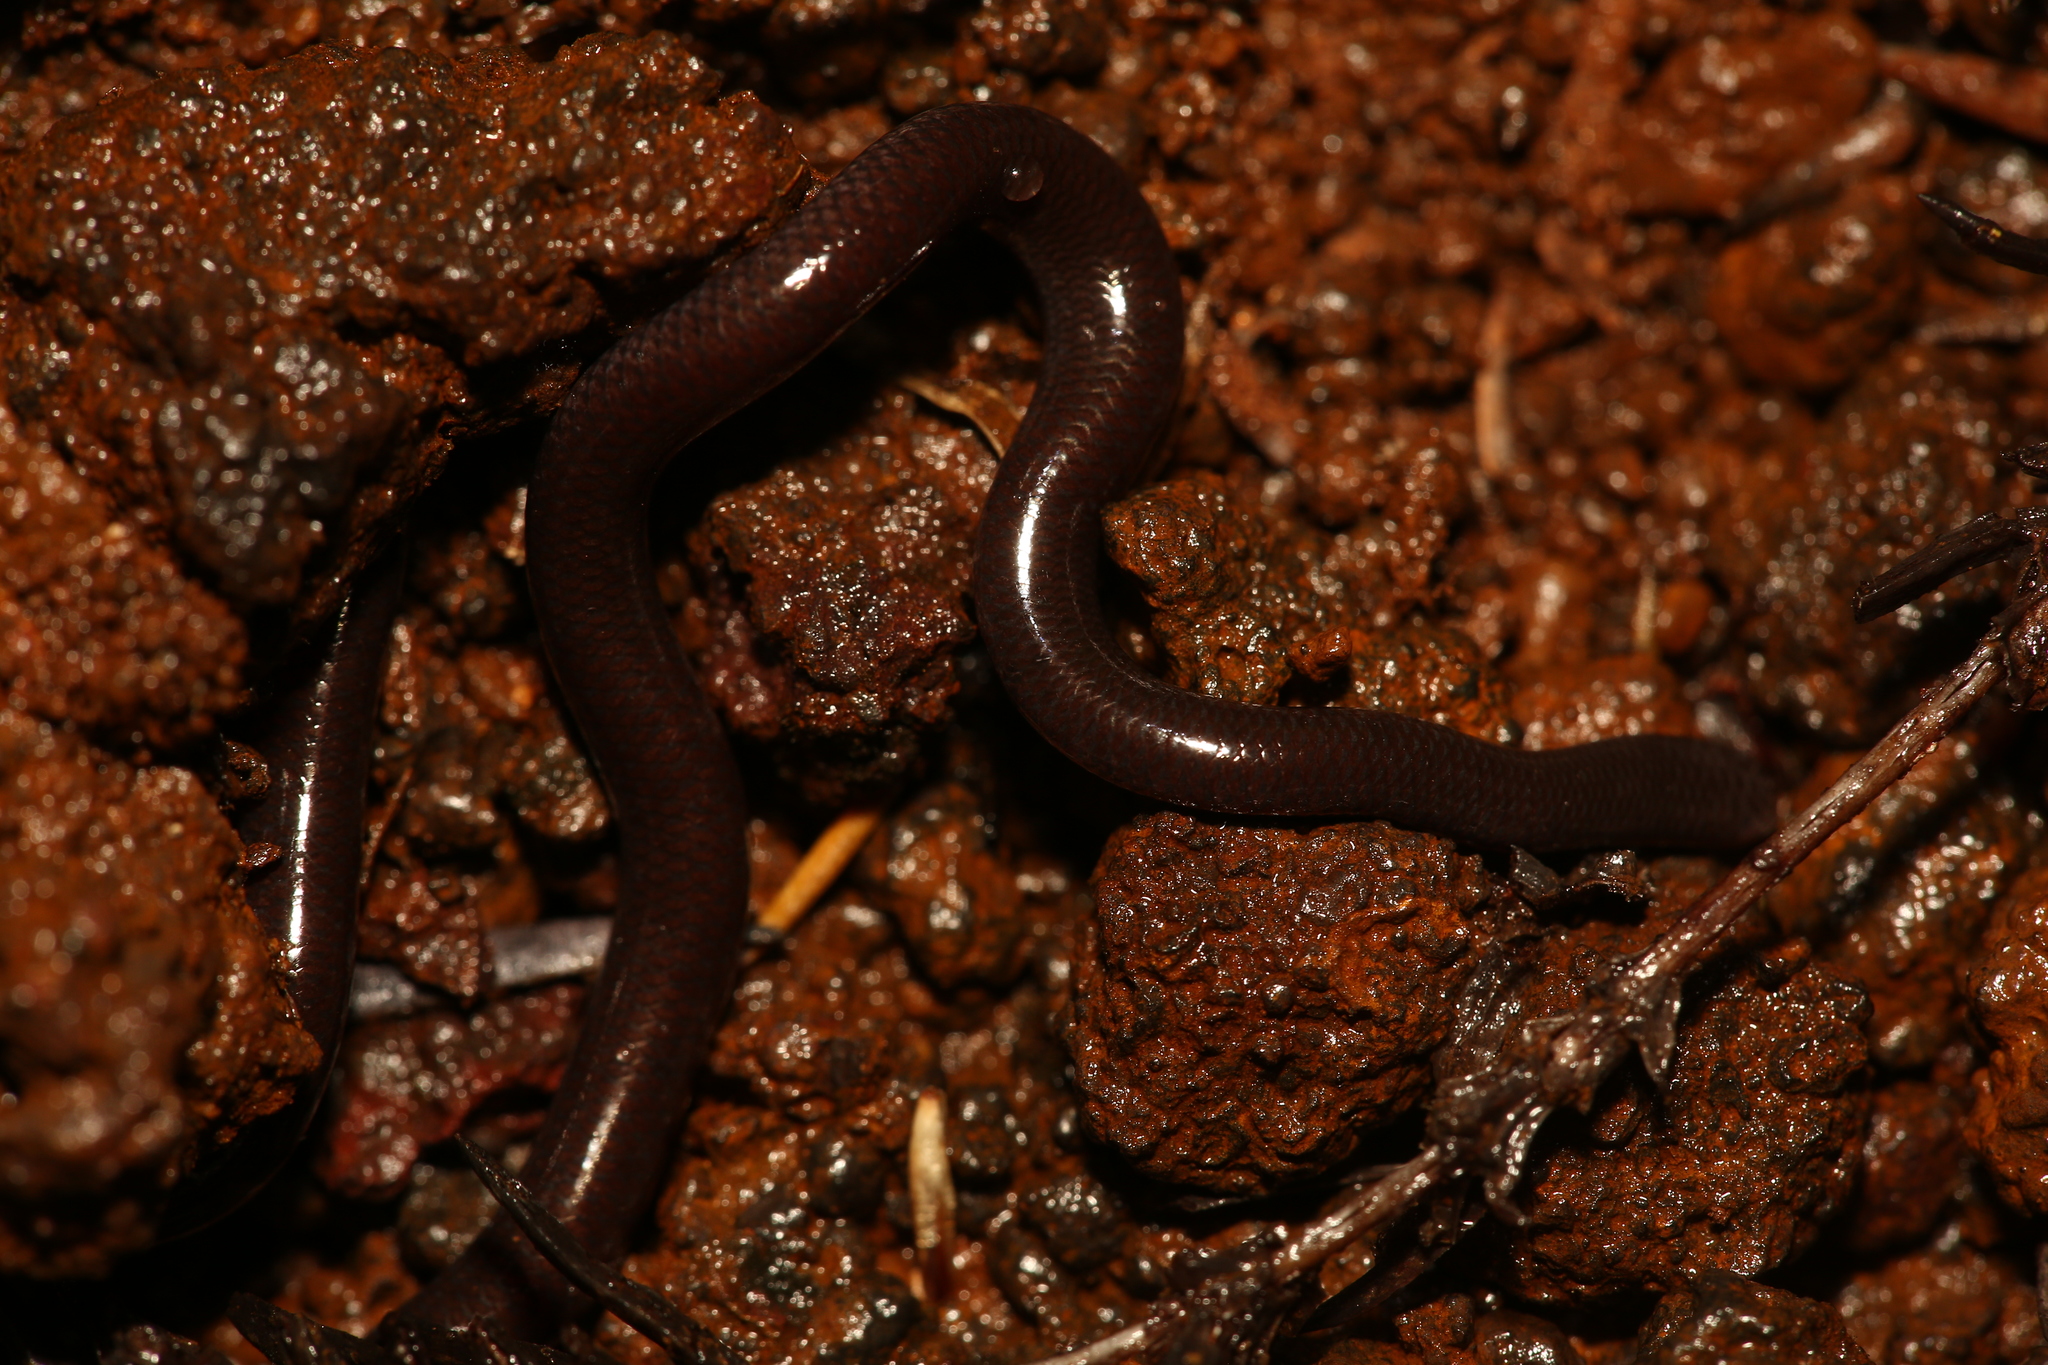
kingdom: Animalia
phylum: Chordata
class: Squamata
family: Typhlopidae
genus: Indotyphlops
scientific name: Indotyphlops braminus
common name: Brahminy blindsnake
